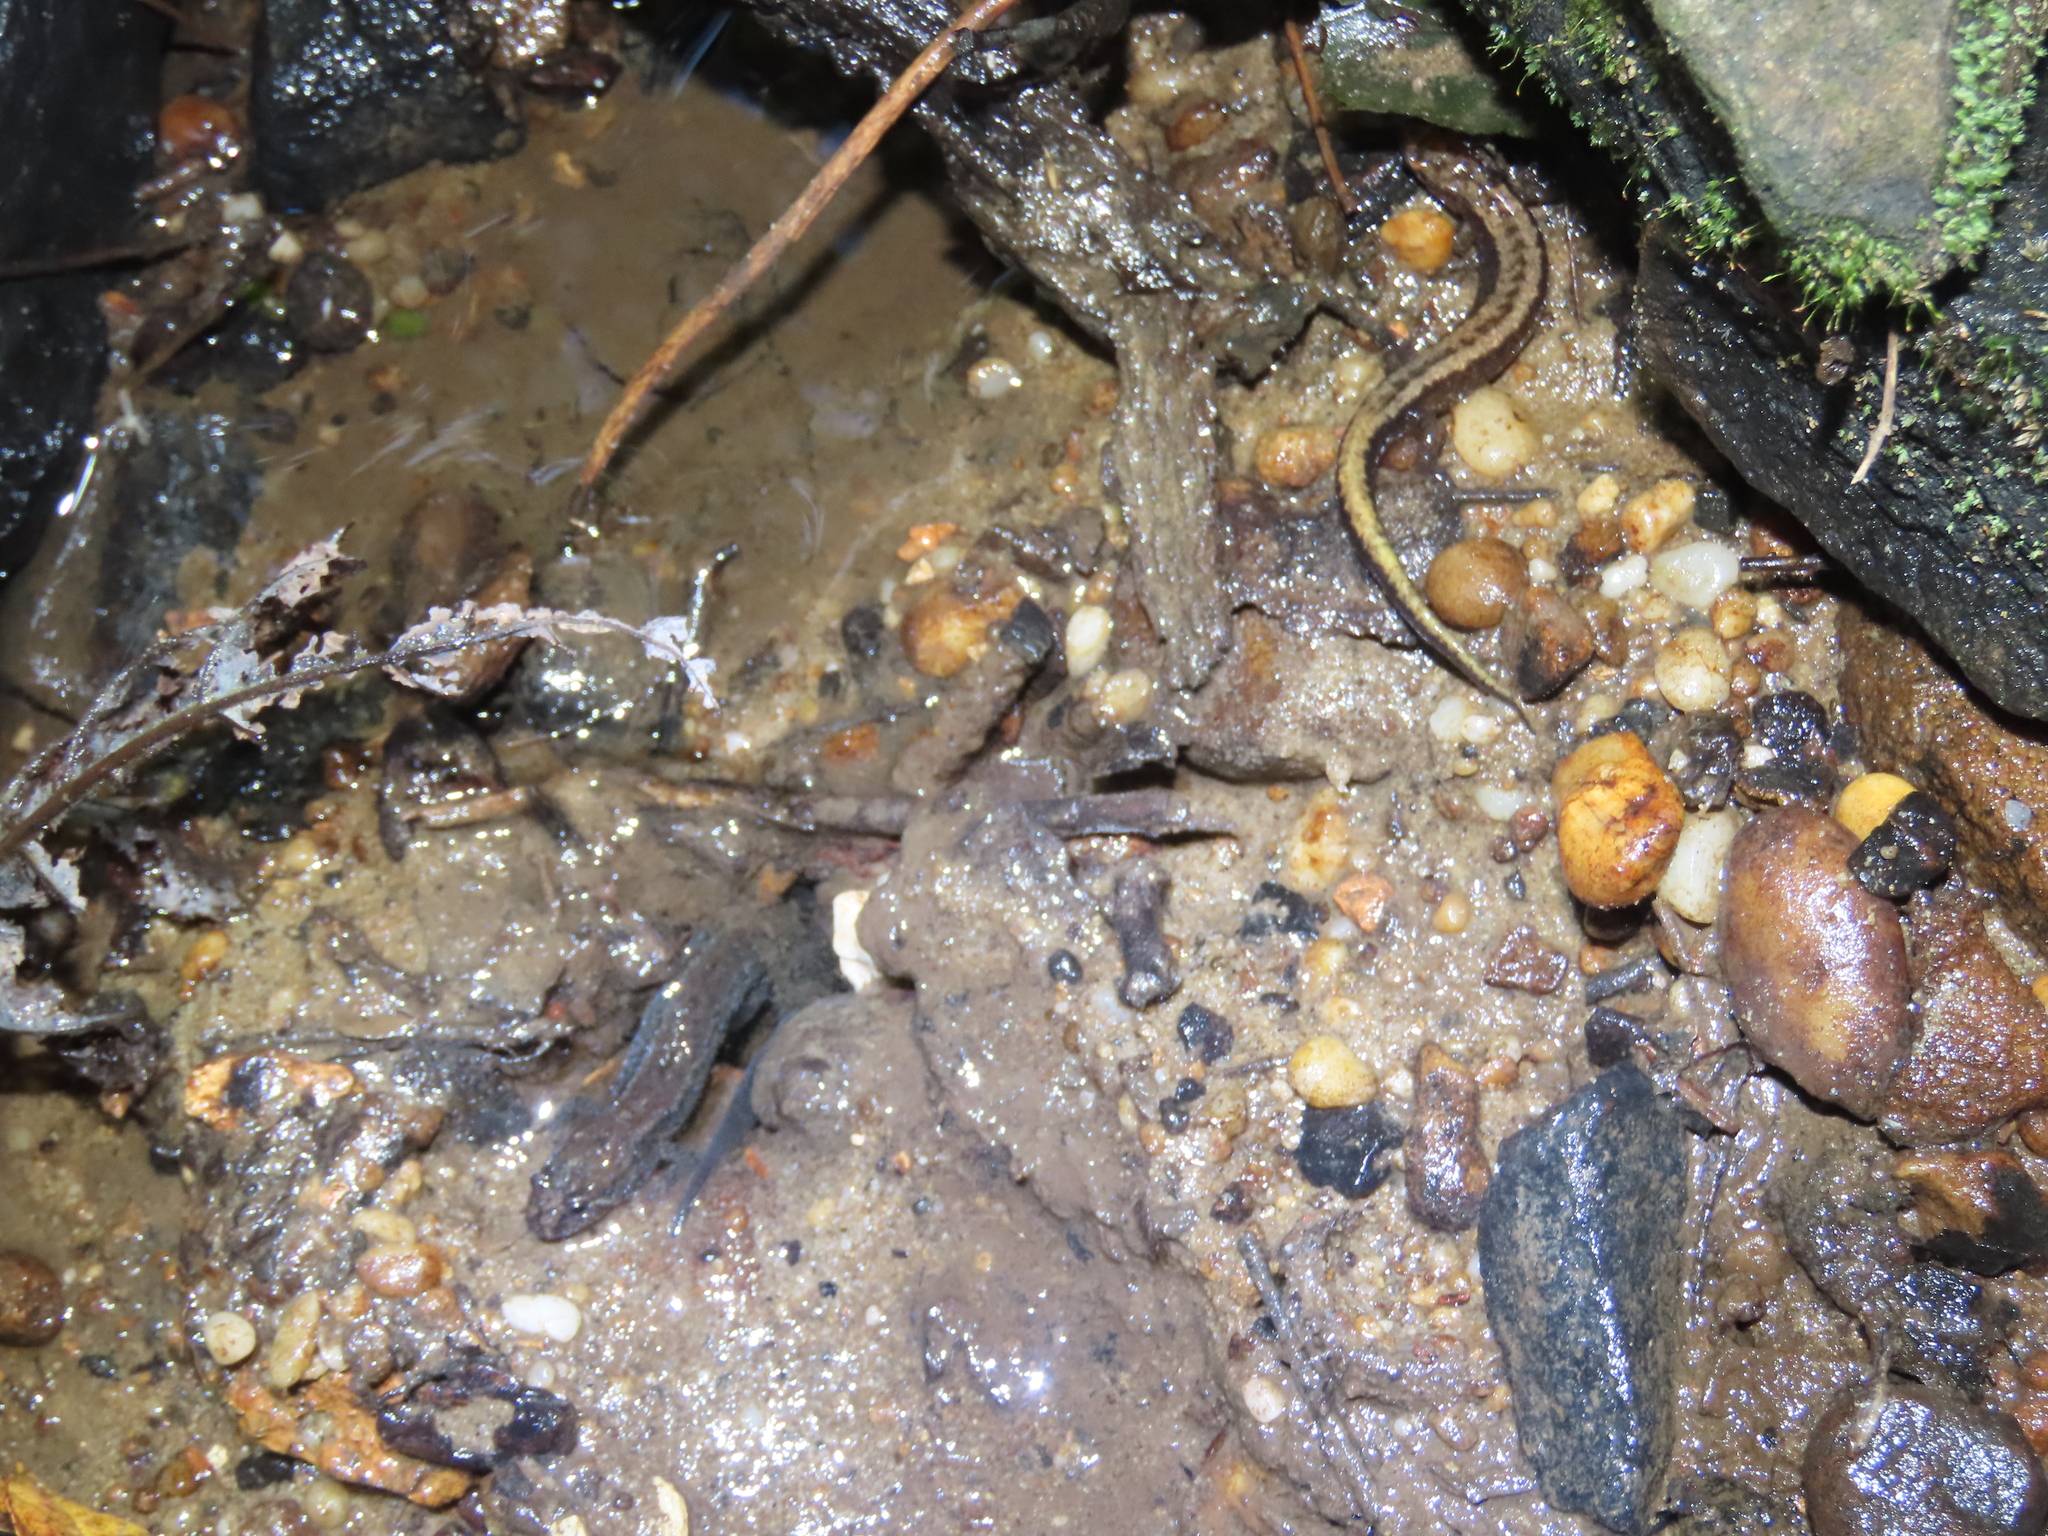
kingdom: Animalia
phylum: Chordata
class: Amphibia
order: Caudata
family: Plethodontidae
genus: Desmognathus
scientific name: Desmognathus fuscus
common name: Northern dusky salamander
